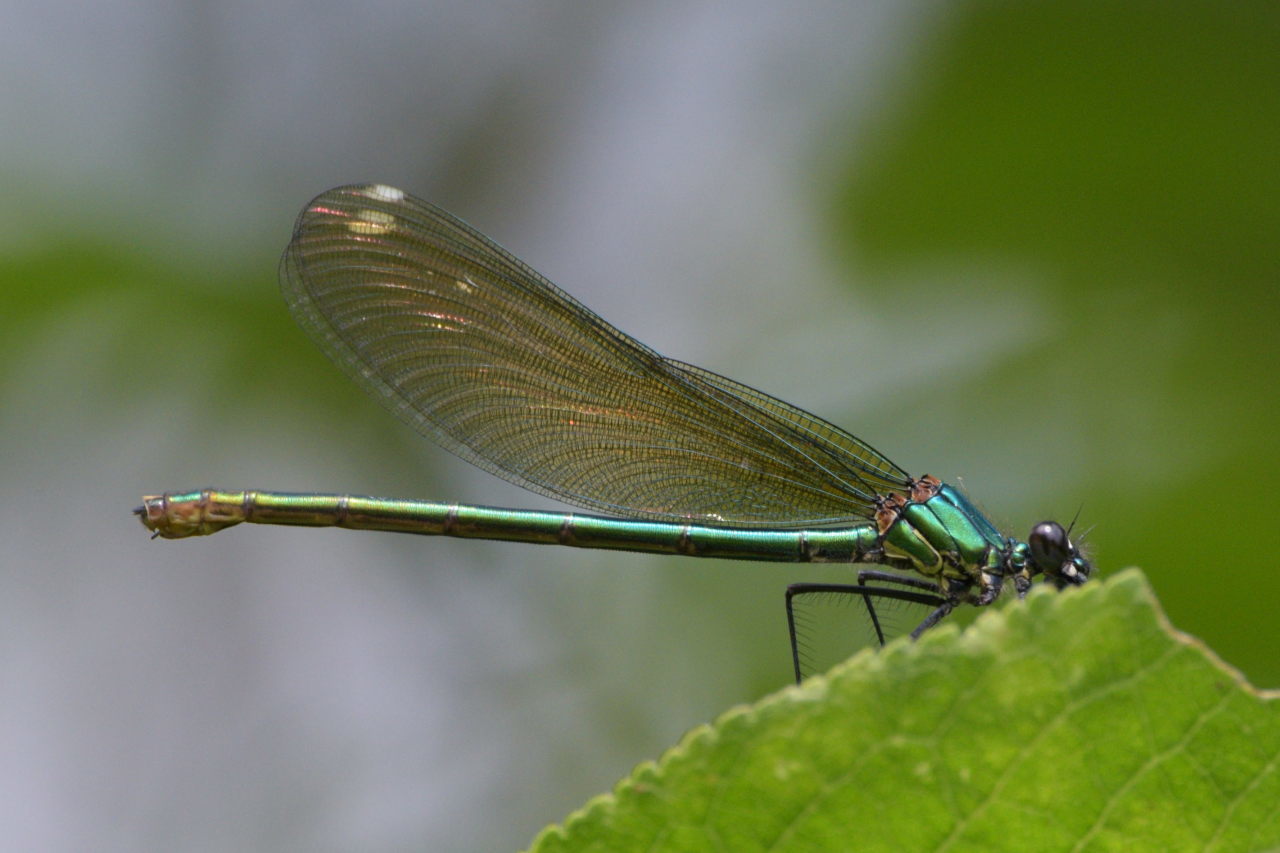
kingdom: Animalia
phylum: Arthropoda
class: Insecta
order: Odonata
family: Calopterygidae
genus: Calopteryx
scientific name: Calopteryx splendens
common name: Banded demoiselle
